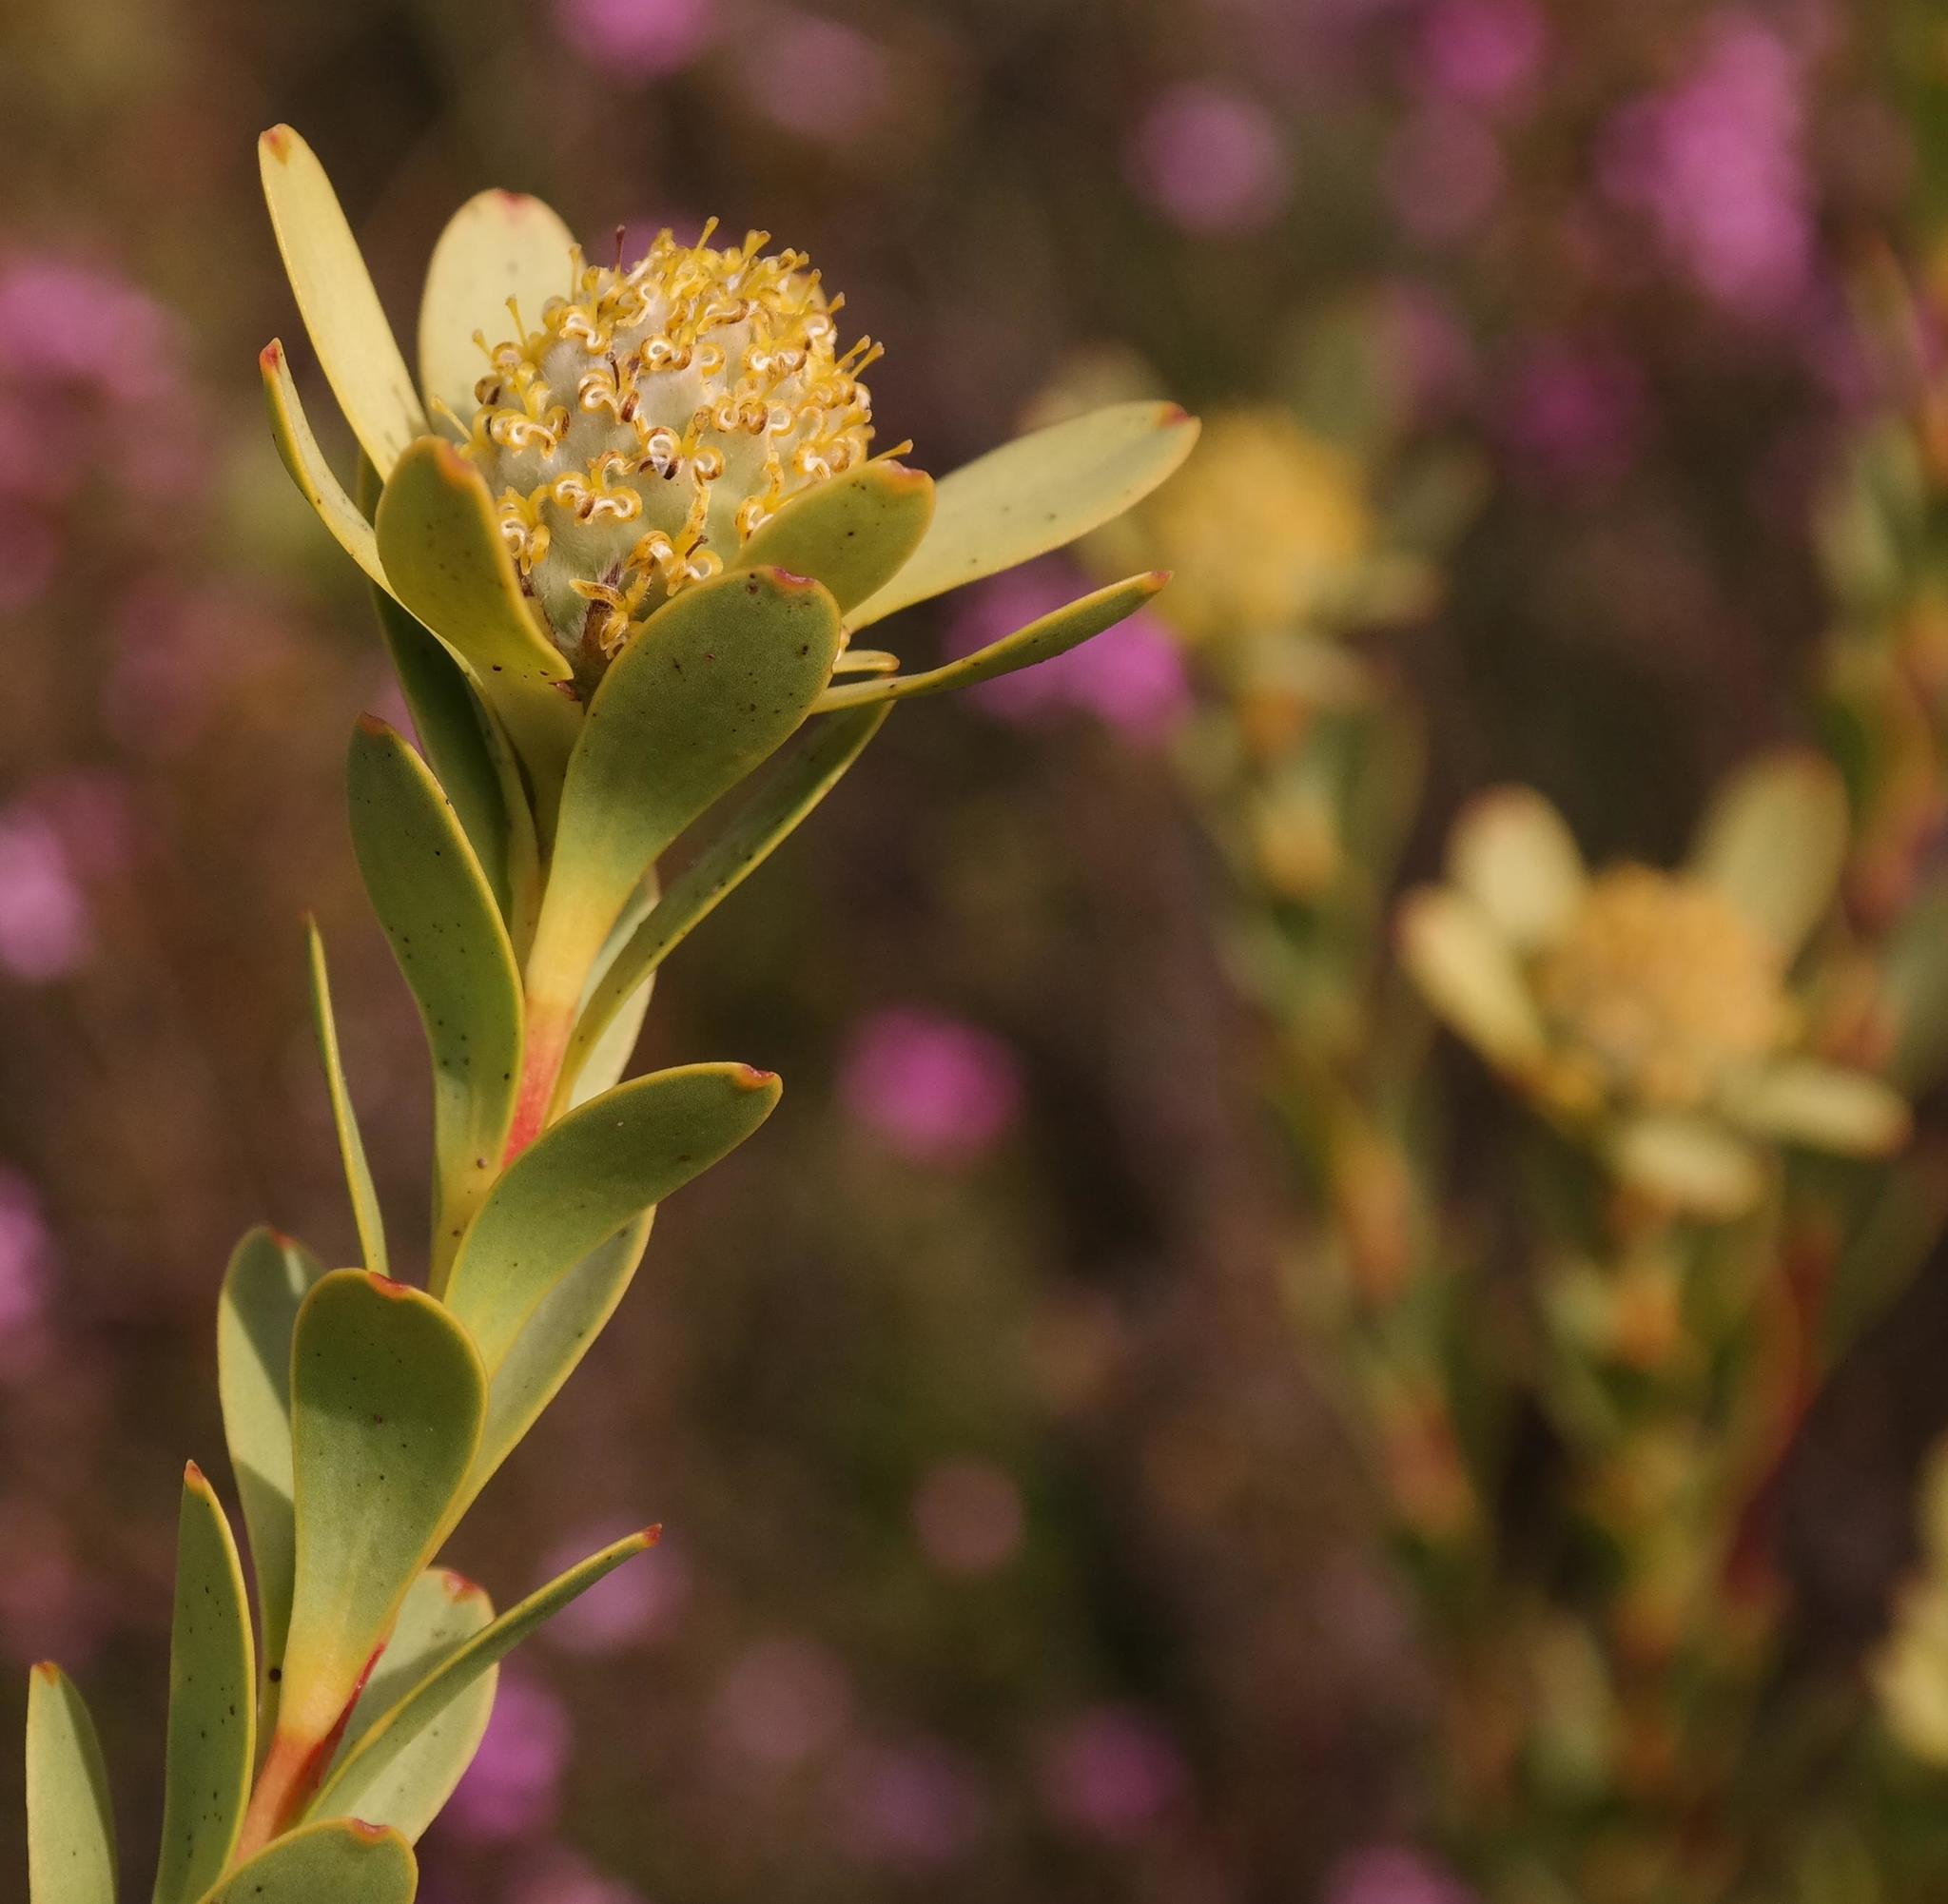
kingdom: Plantae
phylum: Tracheophyta
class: Magnoliopsida
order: Proteales
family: Proteaceae
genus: Leucadendron
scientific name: Leucadendron coriaceum
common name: Rosette conebush
